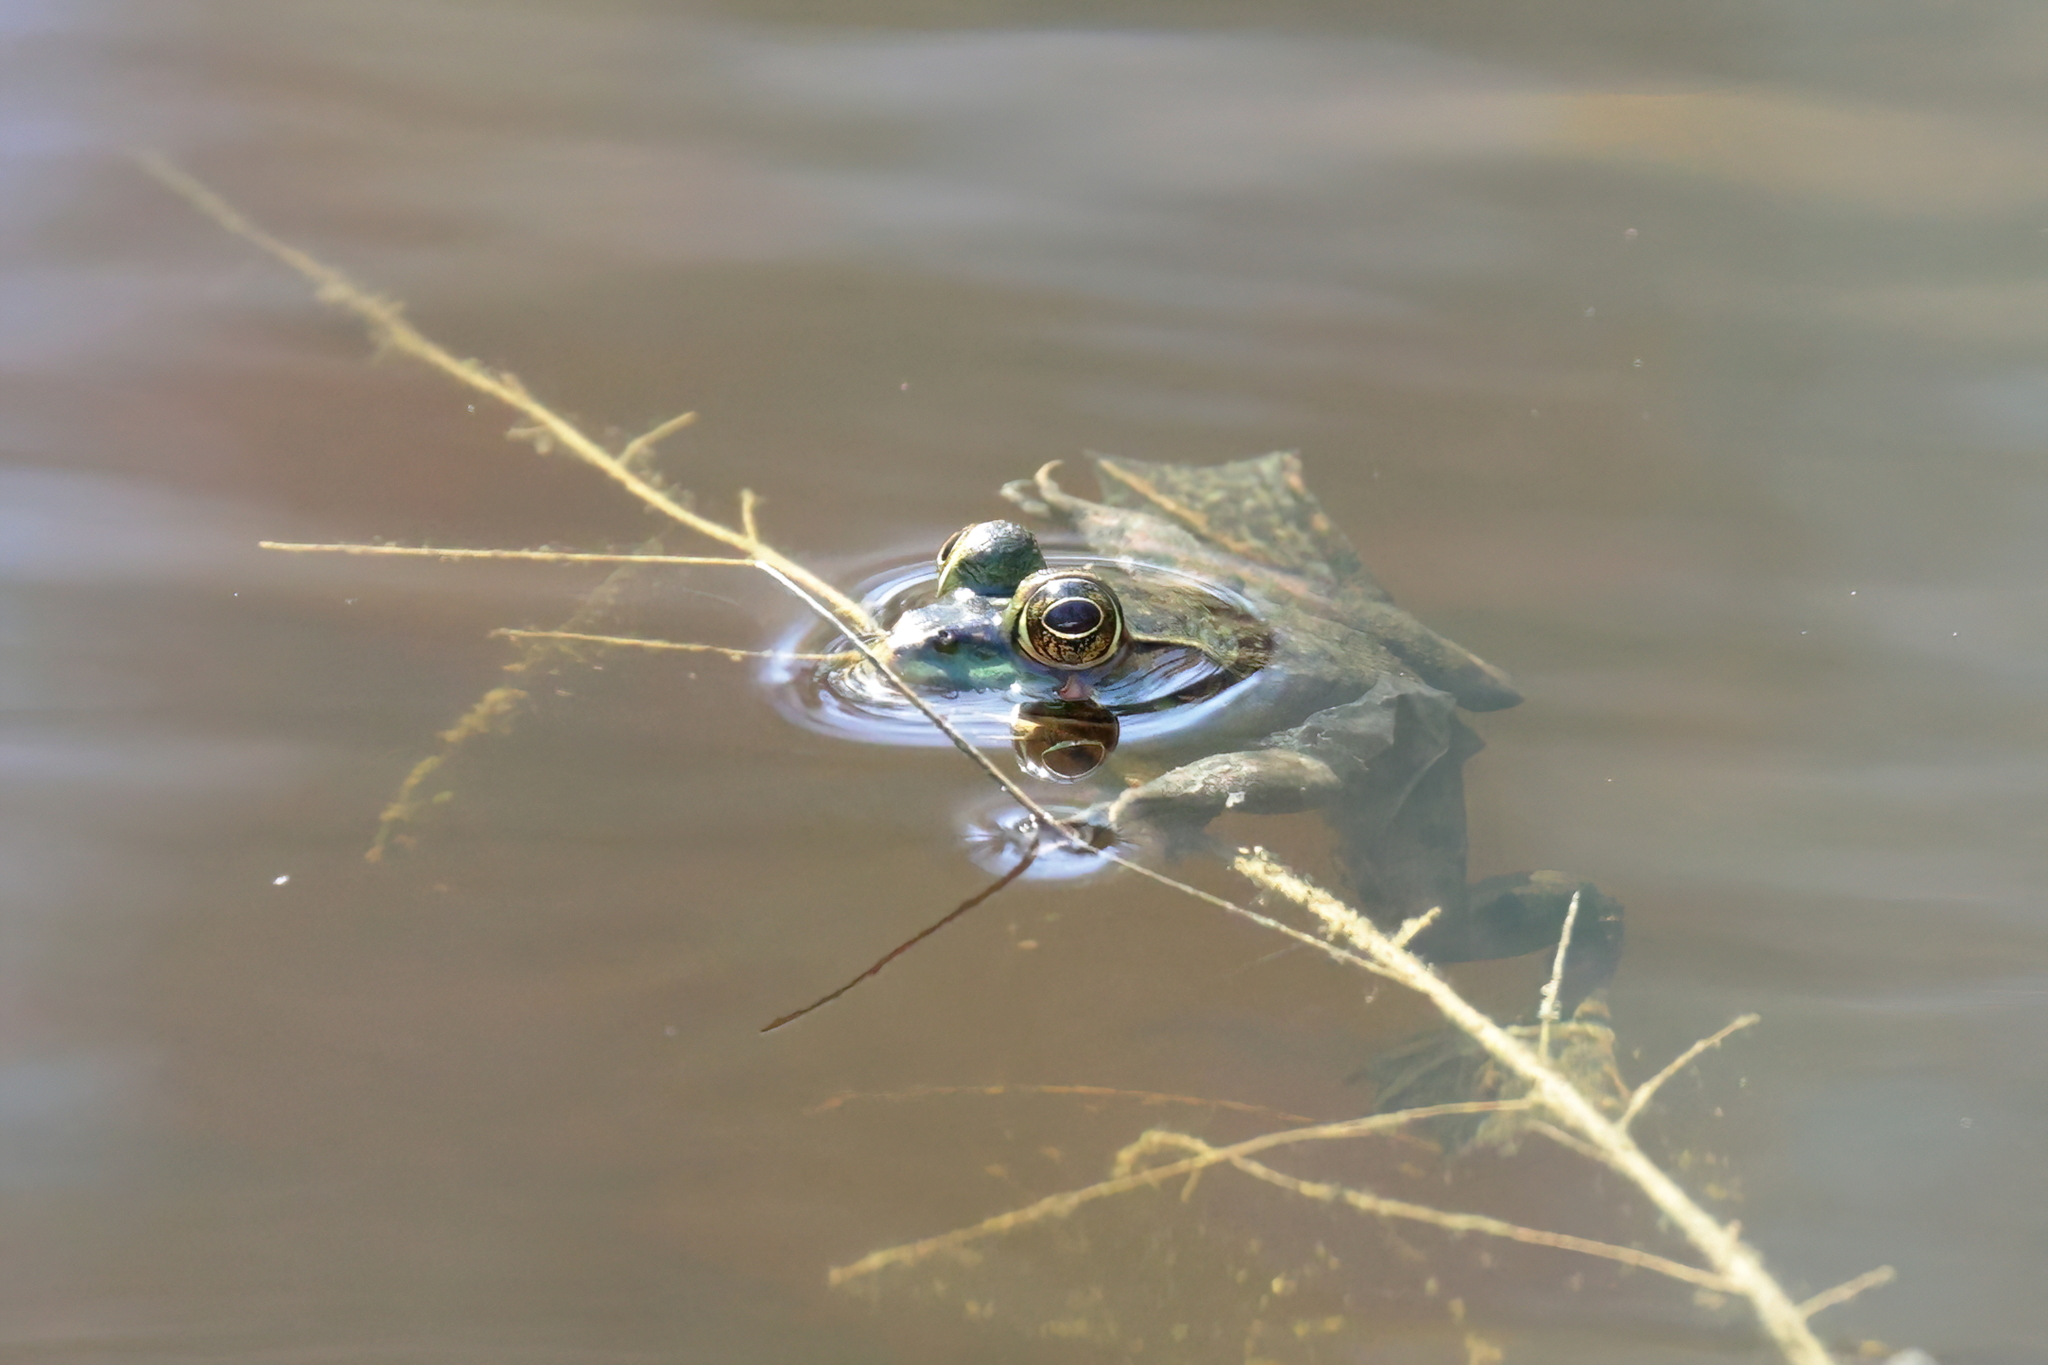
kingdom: Animalia
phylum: Chordata
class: Amphibia
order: Anura
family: Ranidae
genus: Lithobates
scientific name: Lithobates grylio
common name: Pig frog
